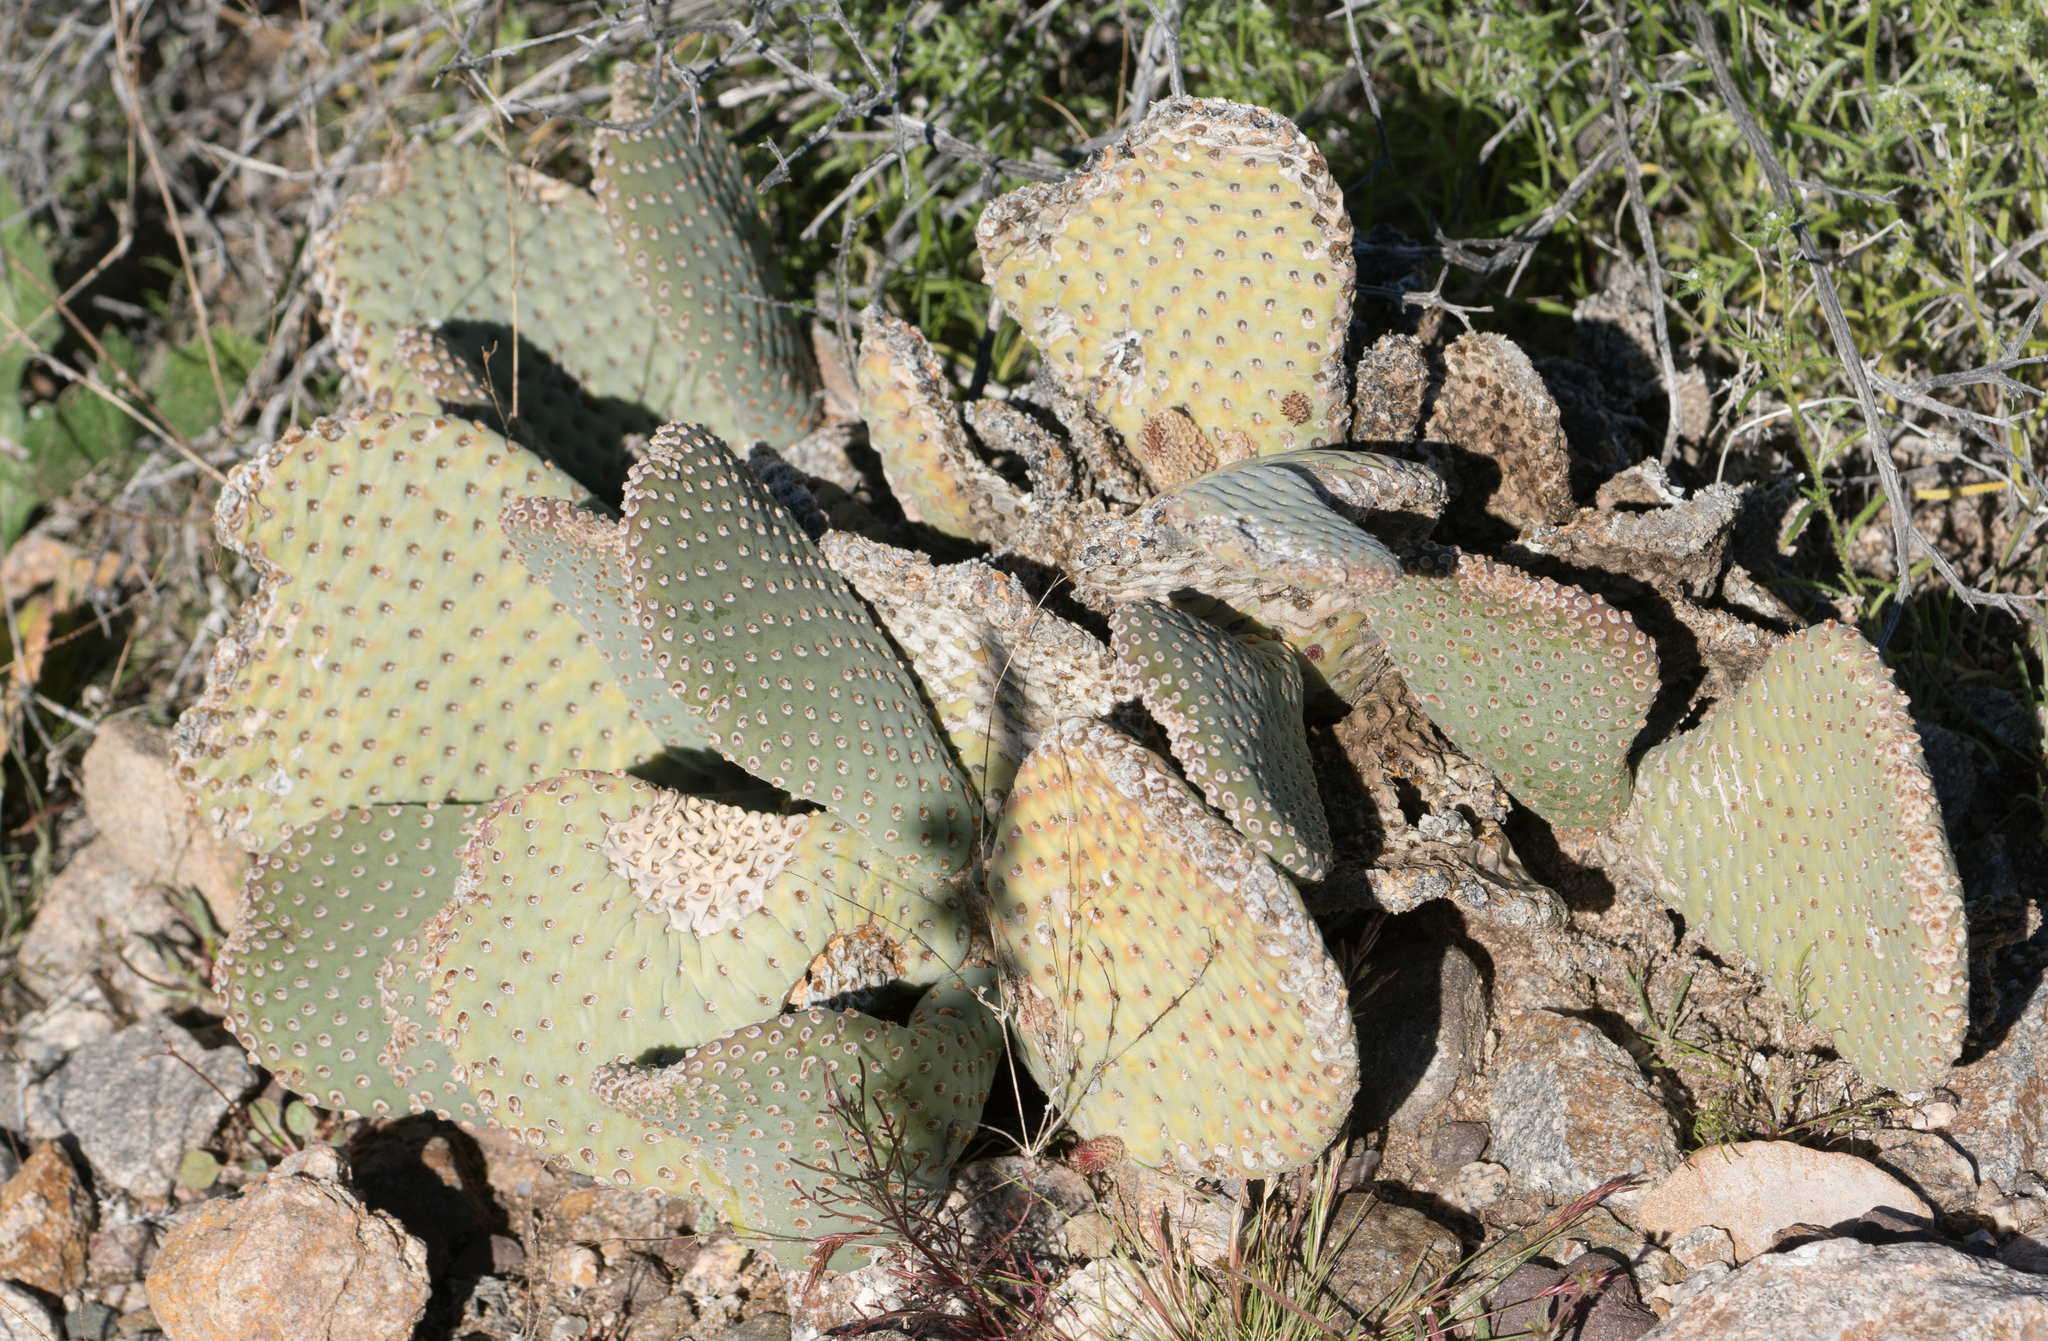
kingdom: Plantae
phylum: Tracheophyta
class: Magnoliopsida
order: Caryophyllales
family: Cactaceae
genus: Opuntia
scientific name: Opuntia basilaris
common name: Beavertail prickly-pear
